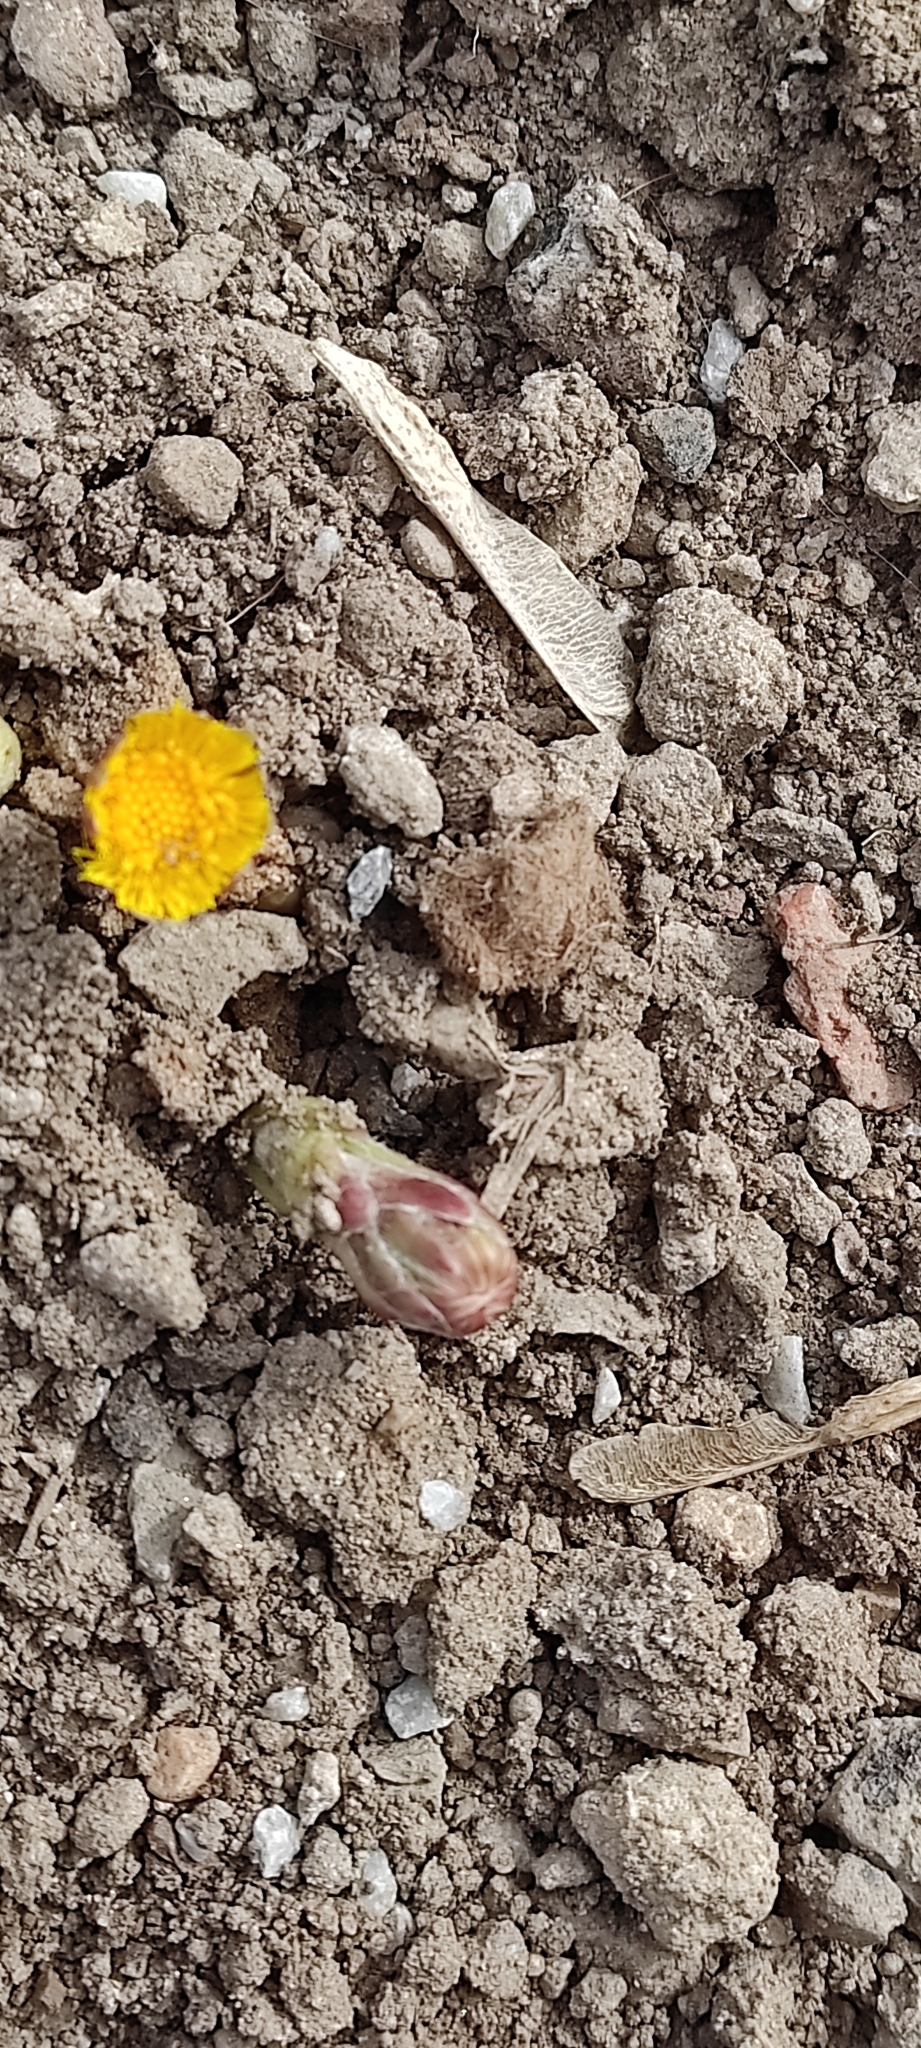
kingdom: Plantae
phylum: Tracheophyta
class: Magnoliopsida
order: Asterales
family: Asteraceae
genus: Tussilago
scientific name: Tussilago farfara
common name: Coltsfoot
